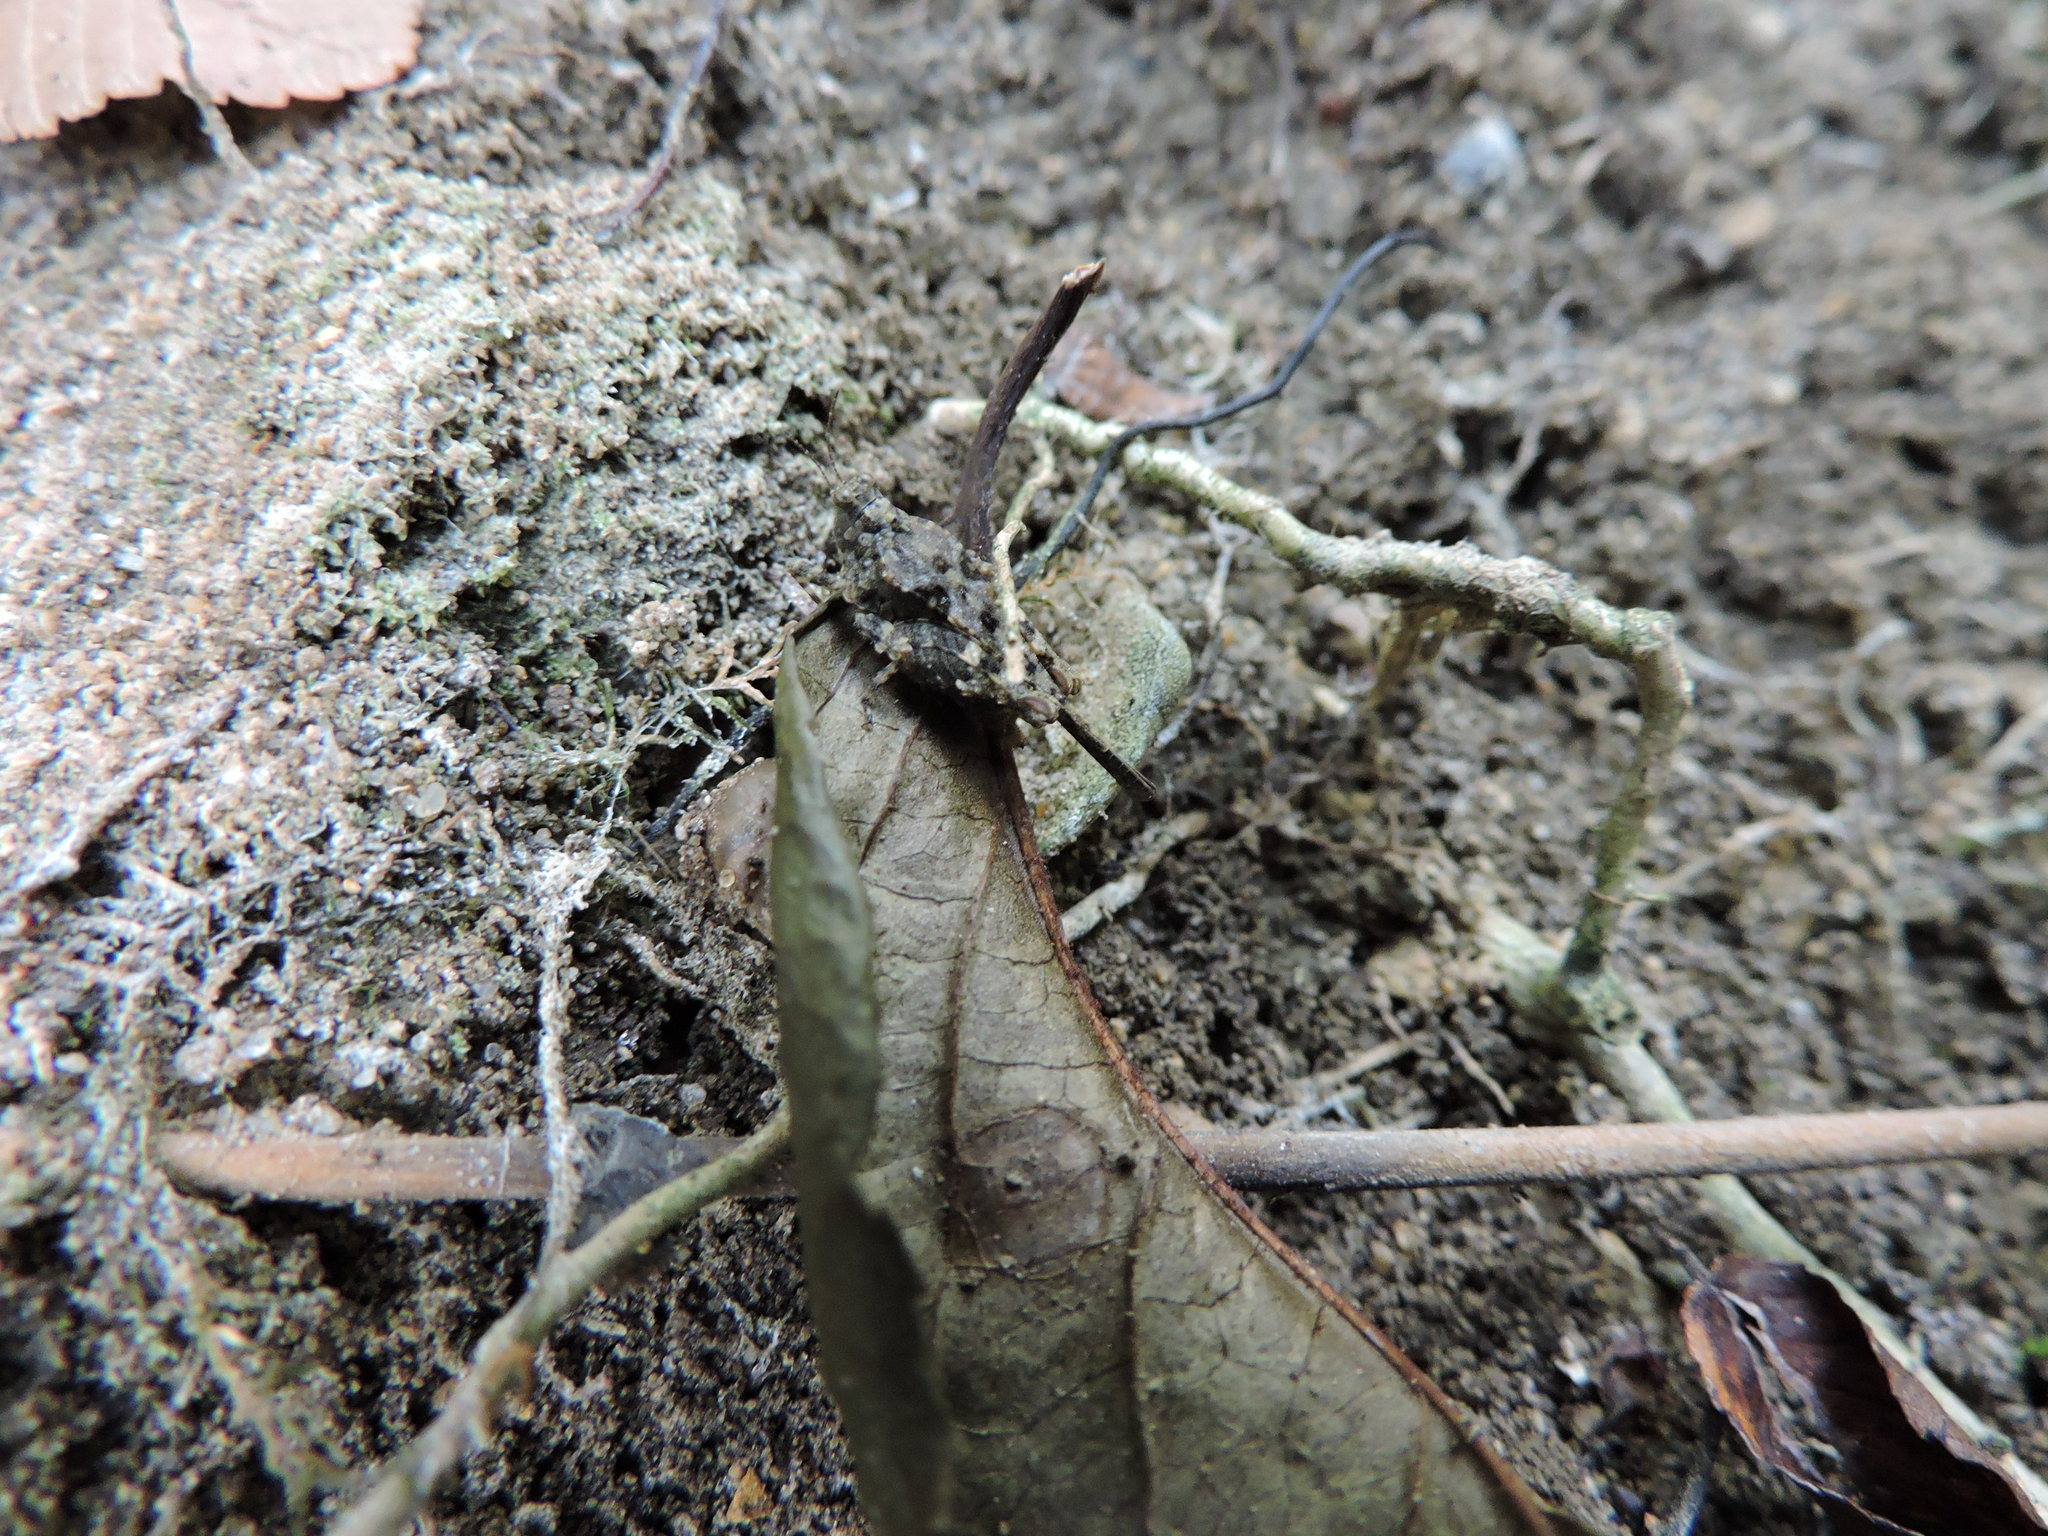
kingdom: Animalia
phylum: Arthropoda
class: Insecta
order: Orthoptera
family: Tetrigidae
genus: Paratettix
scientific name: Paratettix mexicanus
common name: Mexican pygmy grasshopper
